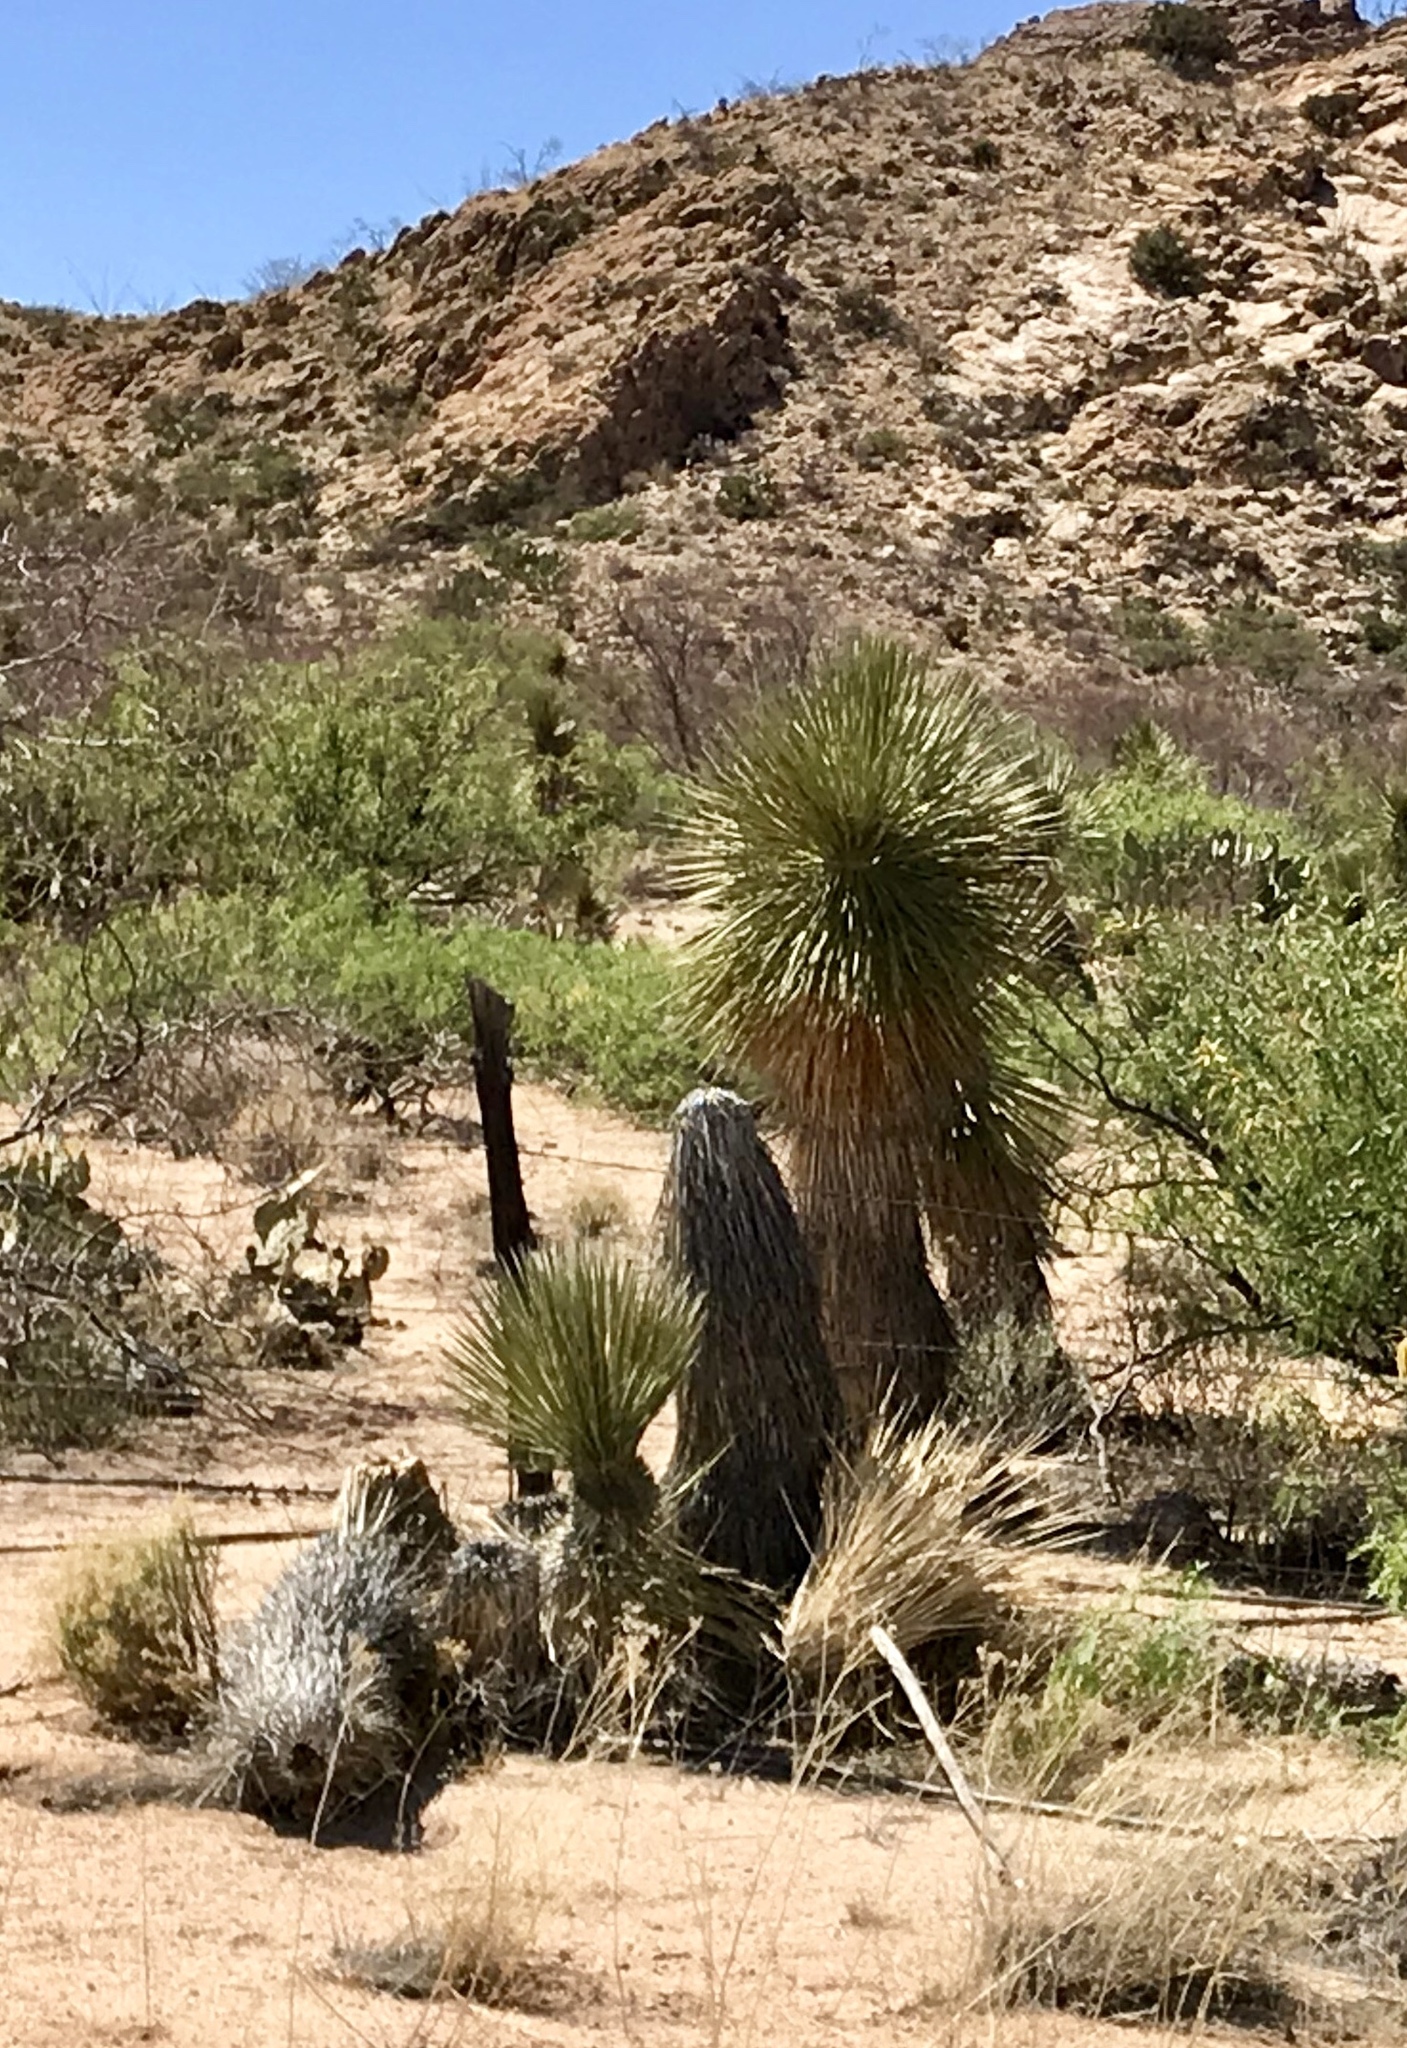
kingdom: Plantae
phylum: Tracheophyta
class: Liliopsida
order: Asparagales
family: Asparagaceae
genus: Yucca
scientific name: Yucca elata
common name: Palmella
